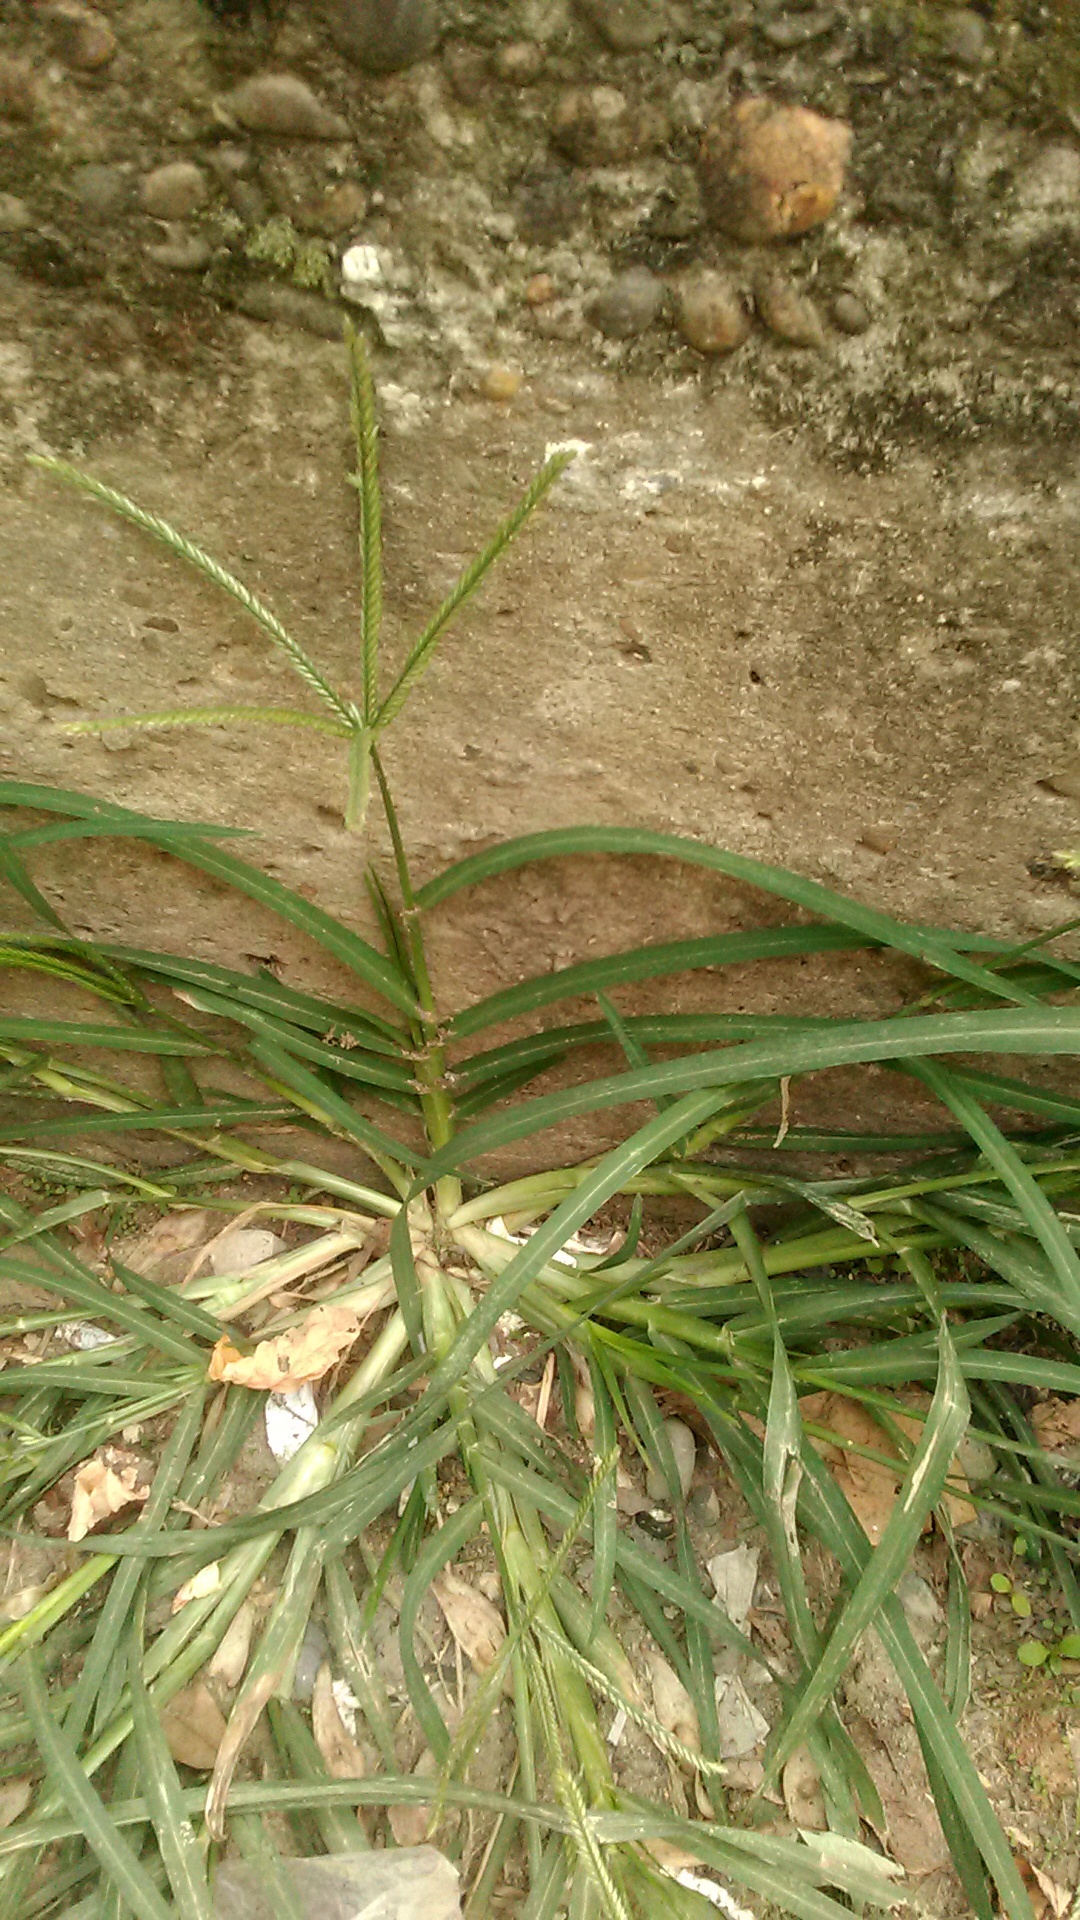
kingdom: Plantae
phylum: Tracheophyta
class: Liliopsida
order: Poales
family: Poaceae
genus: Cynodon
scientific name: Cynodon dactylon
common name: Bermuda grass
